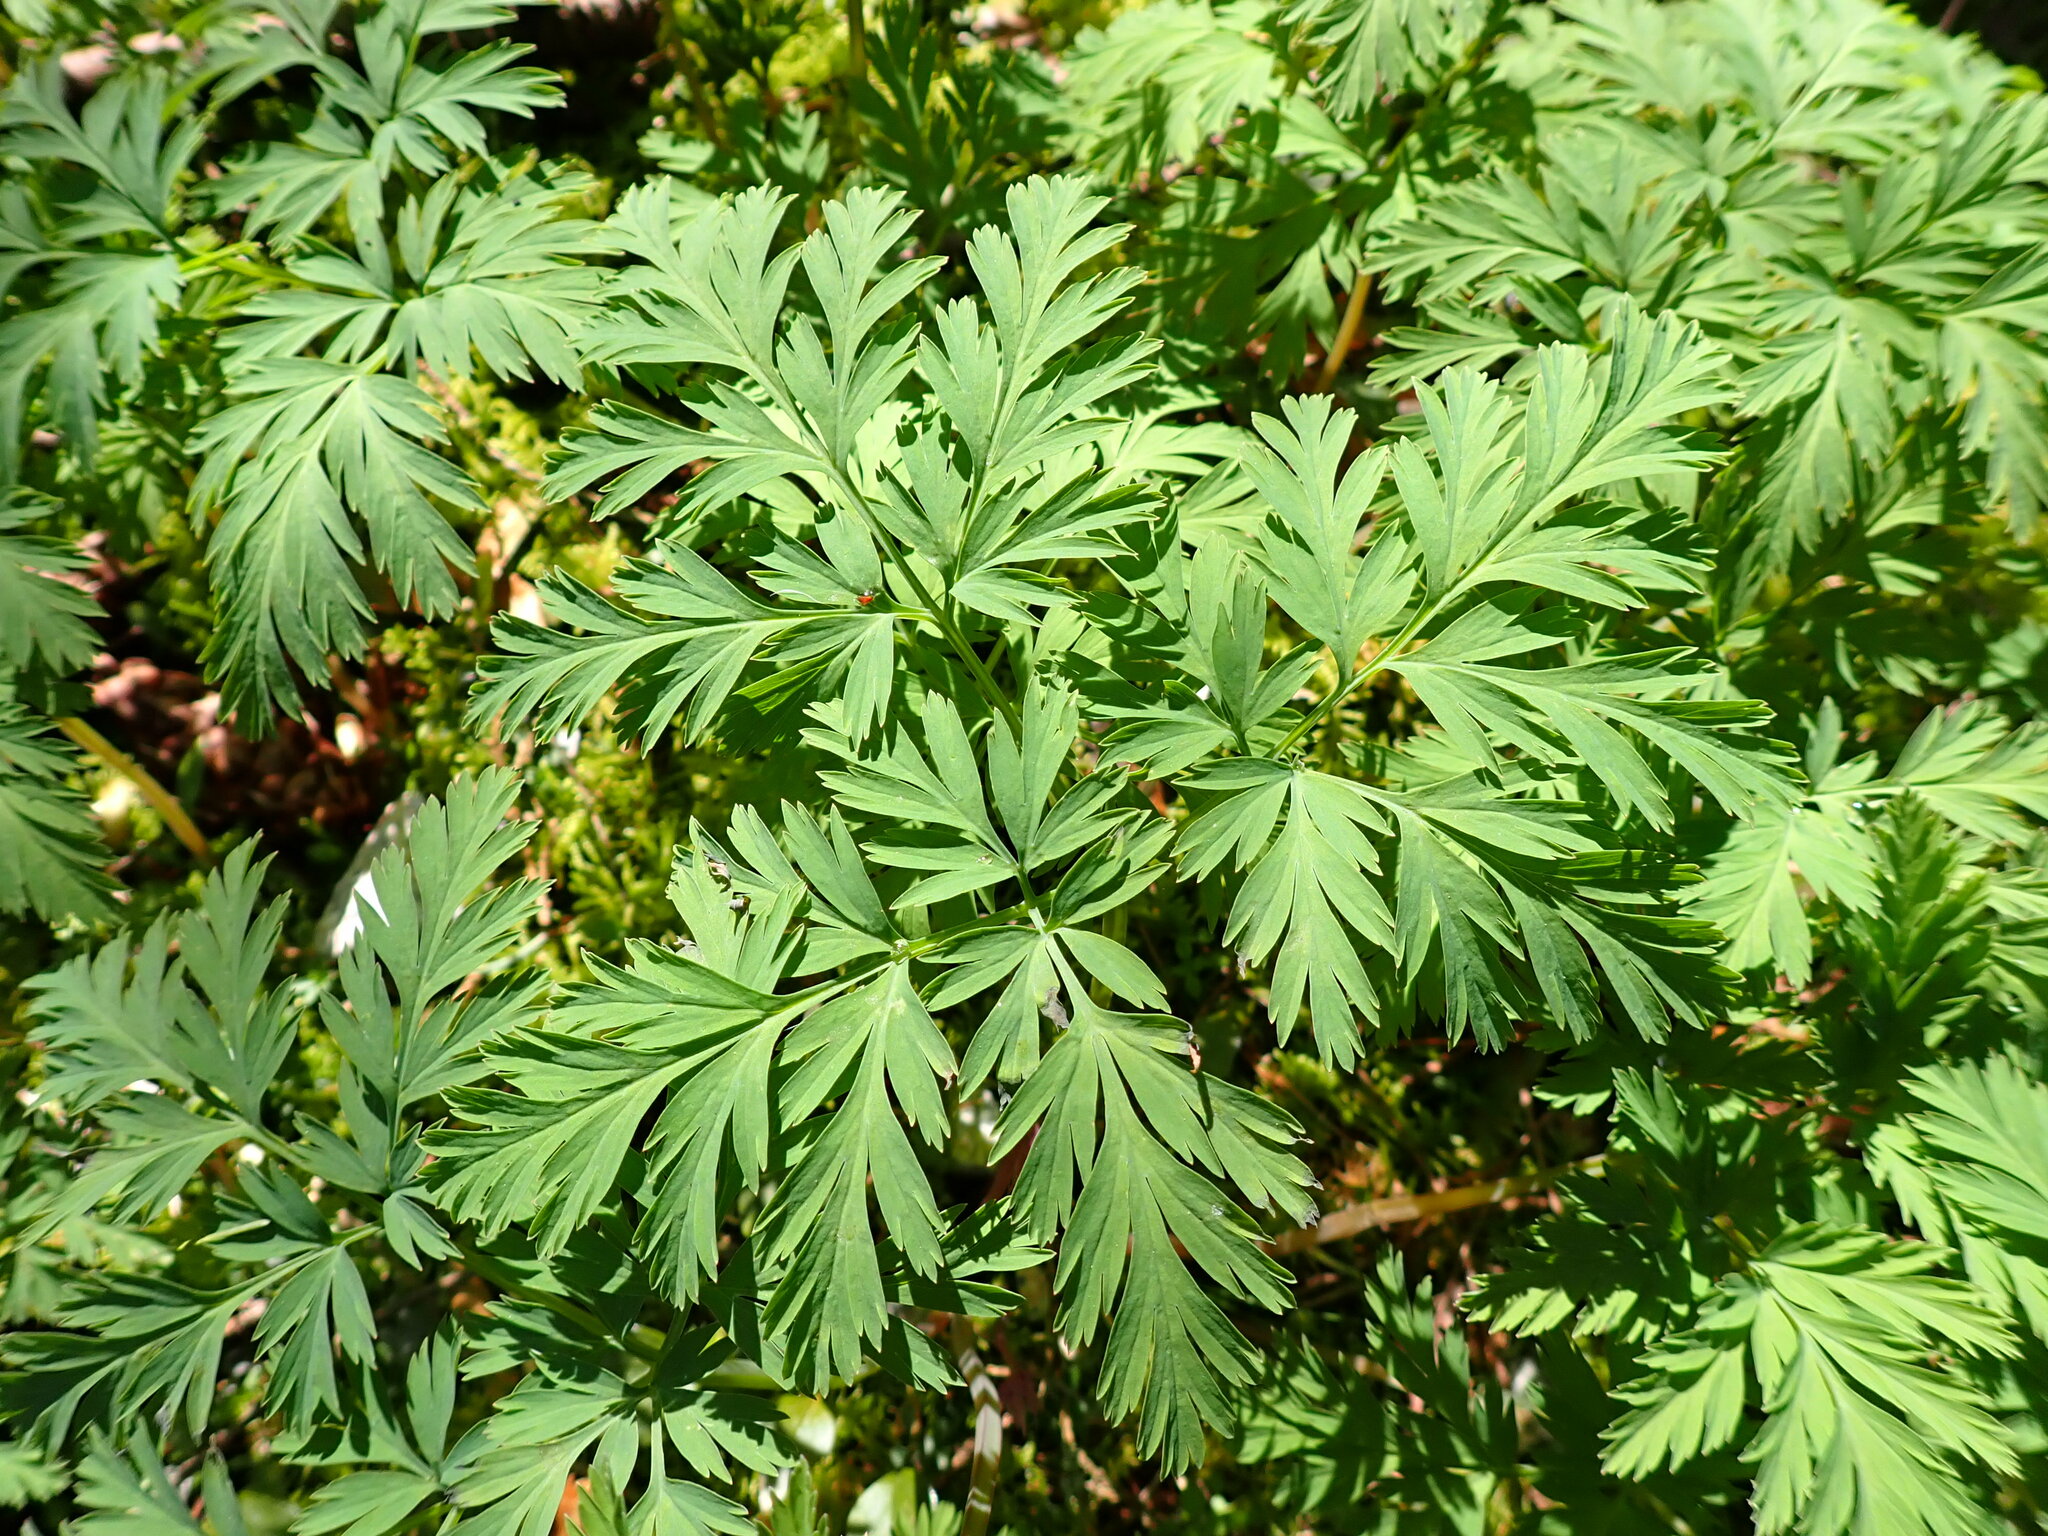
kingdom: Plantae
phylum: Tracheophyta
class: Magnoliopsida
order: Ranunculales
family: Papaveraceae
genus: Dicentra
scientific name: Dicentra formosa
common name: Bleeding-heart
